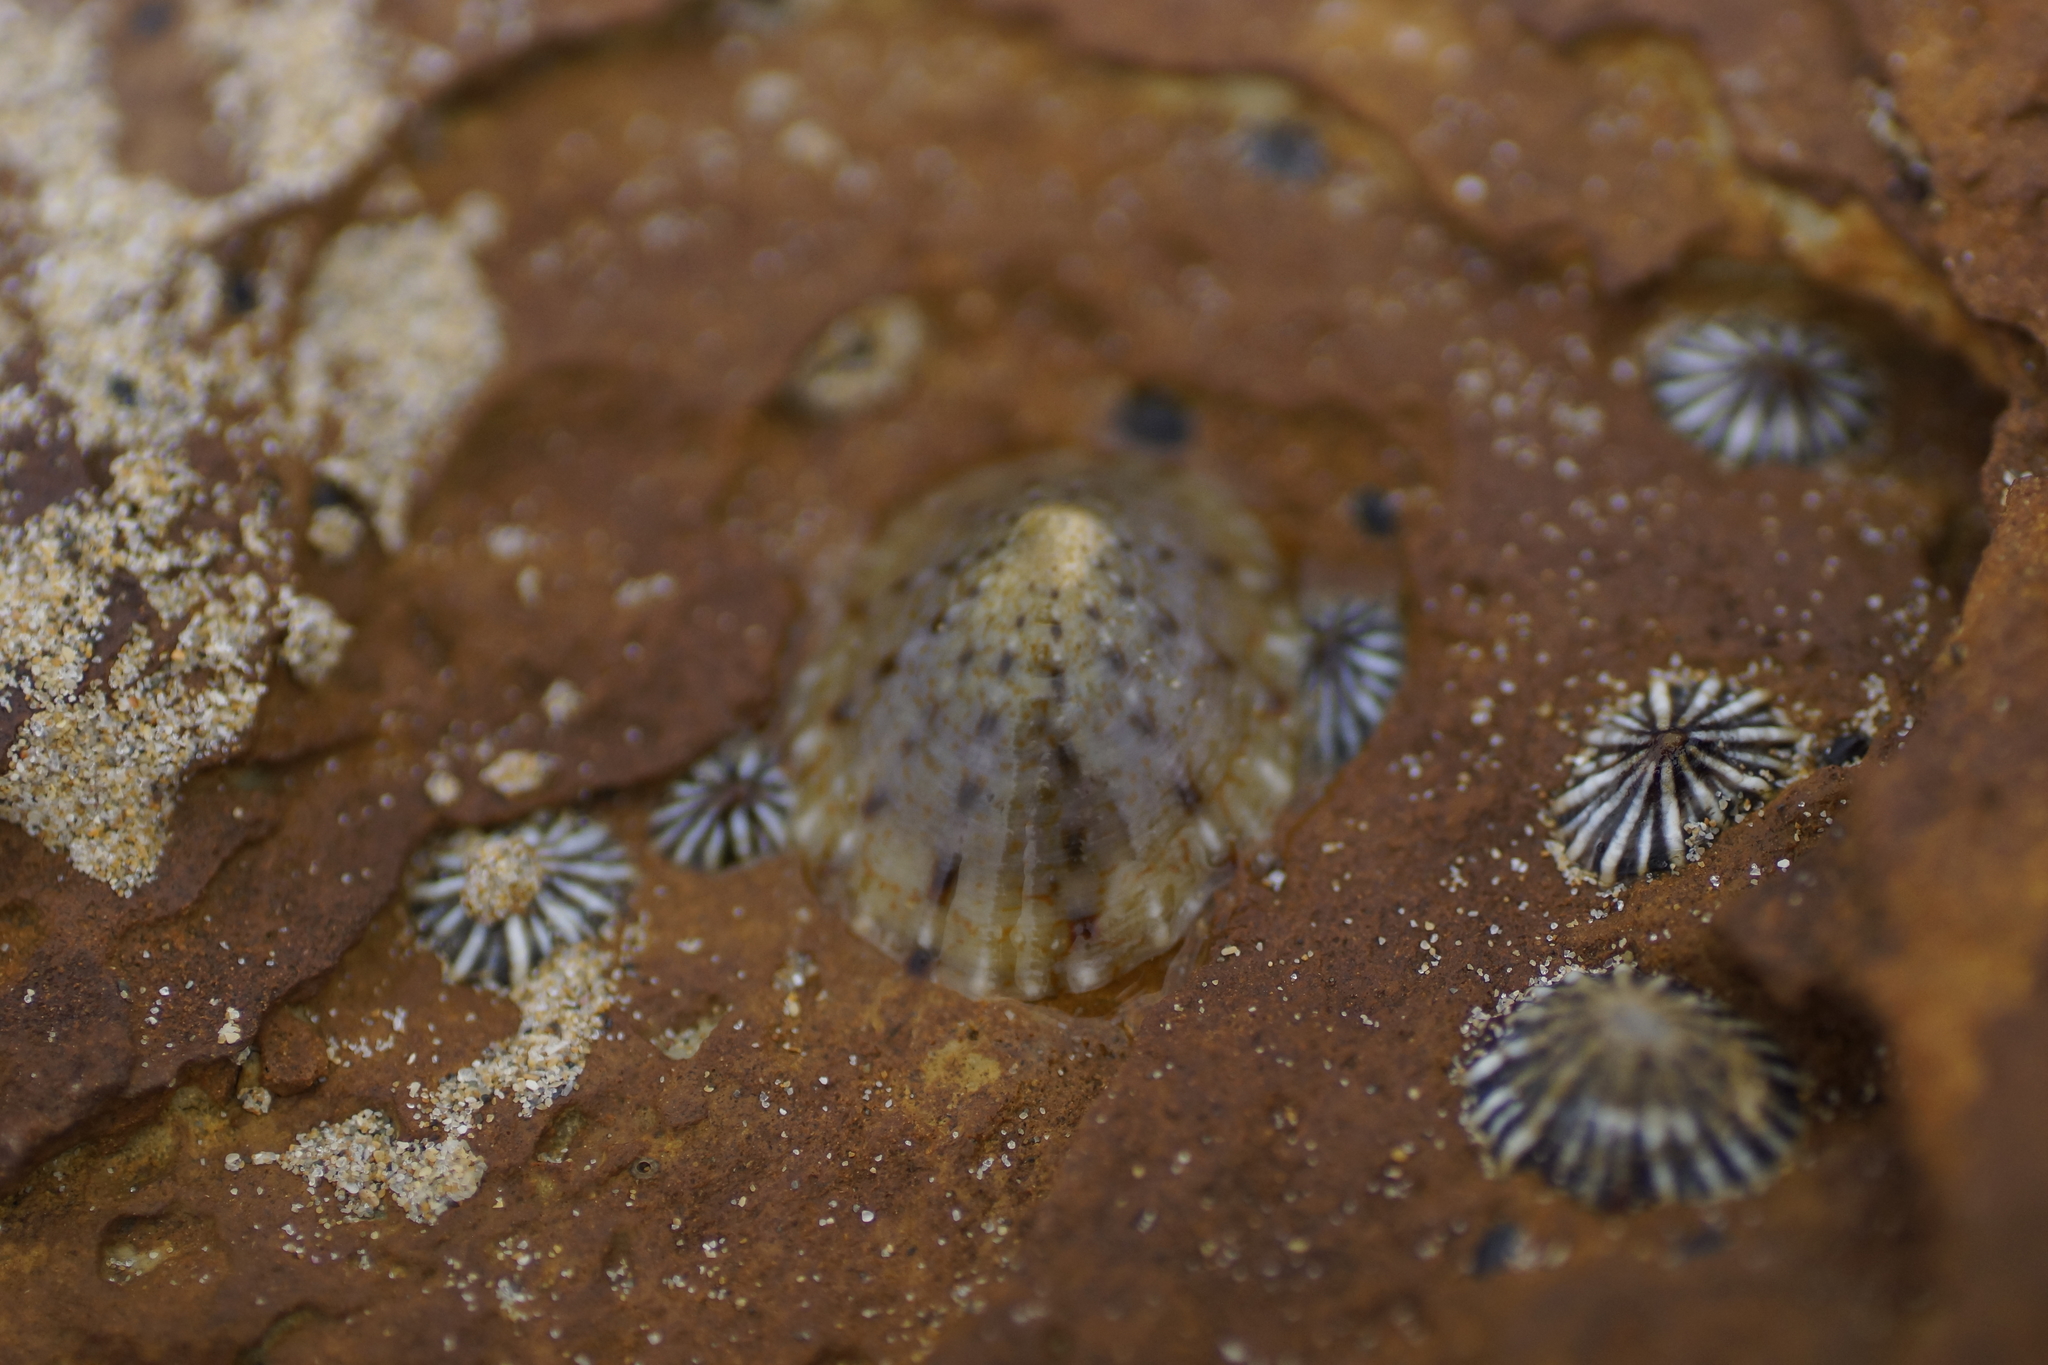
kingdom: Animalia
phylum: Mollusca
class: Gastropoda
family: Nacellidae
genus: Cellana
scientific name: Cellana tramoserica
